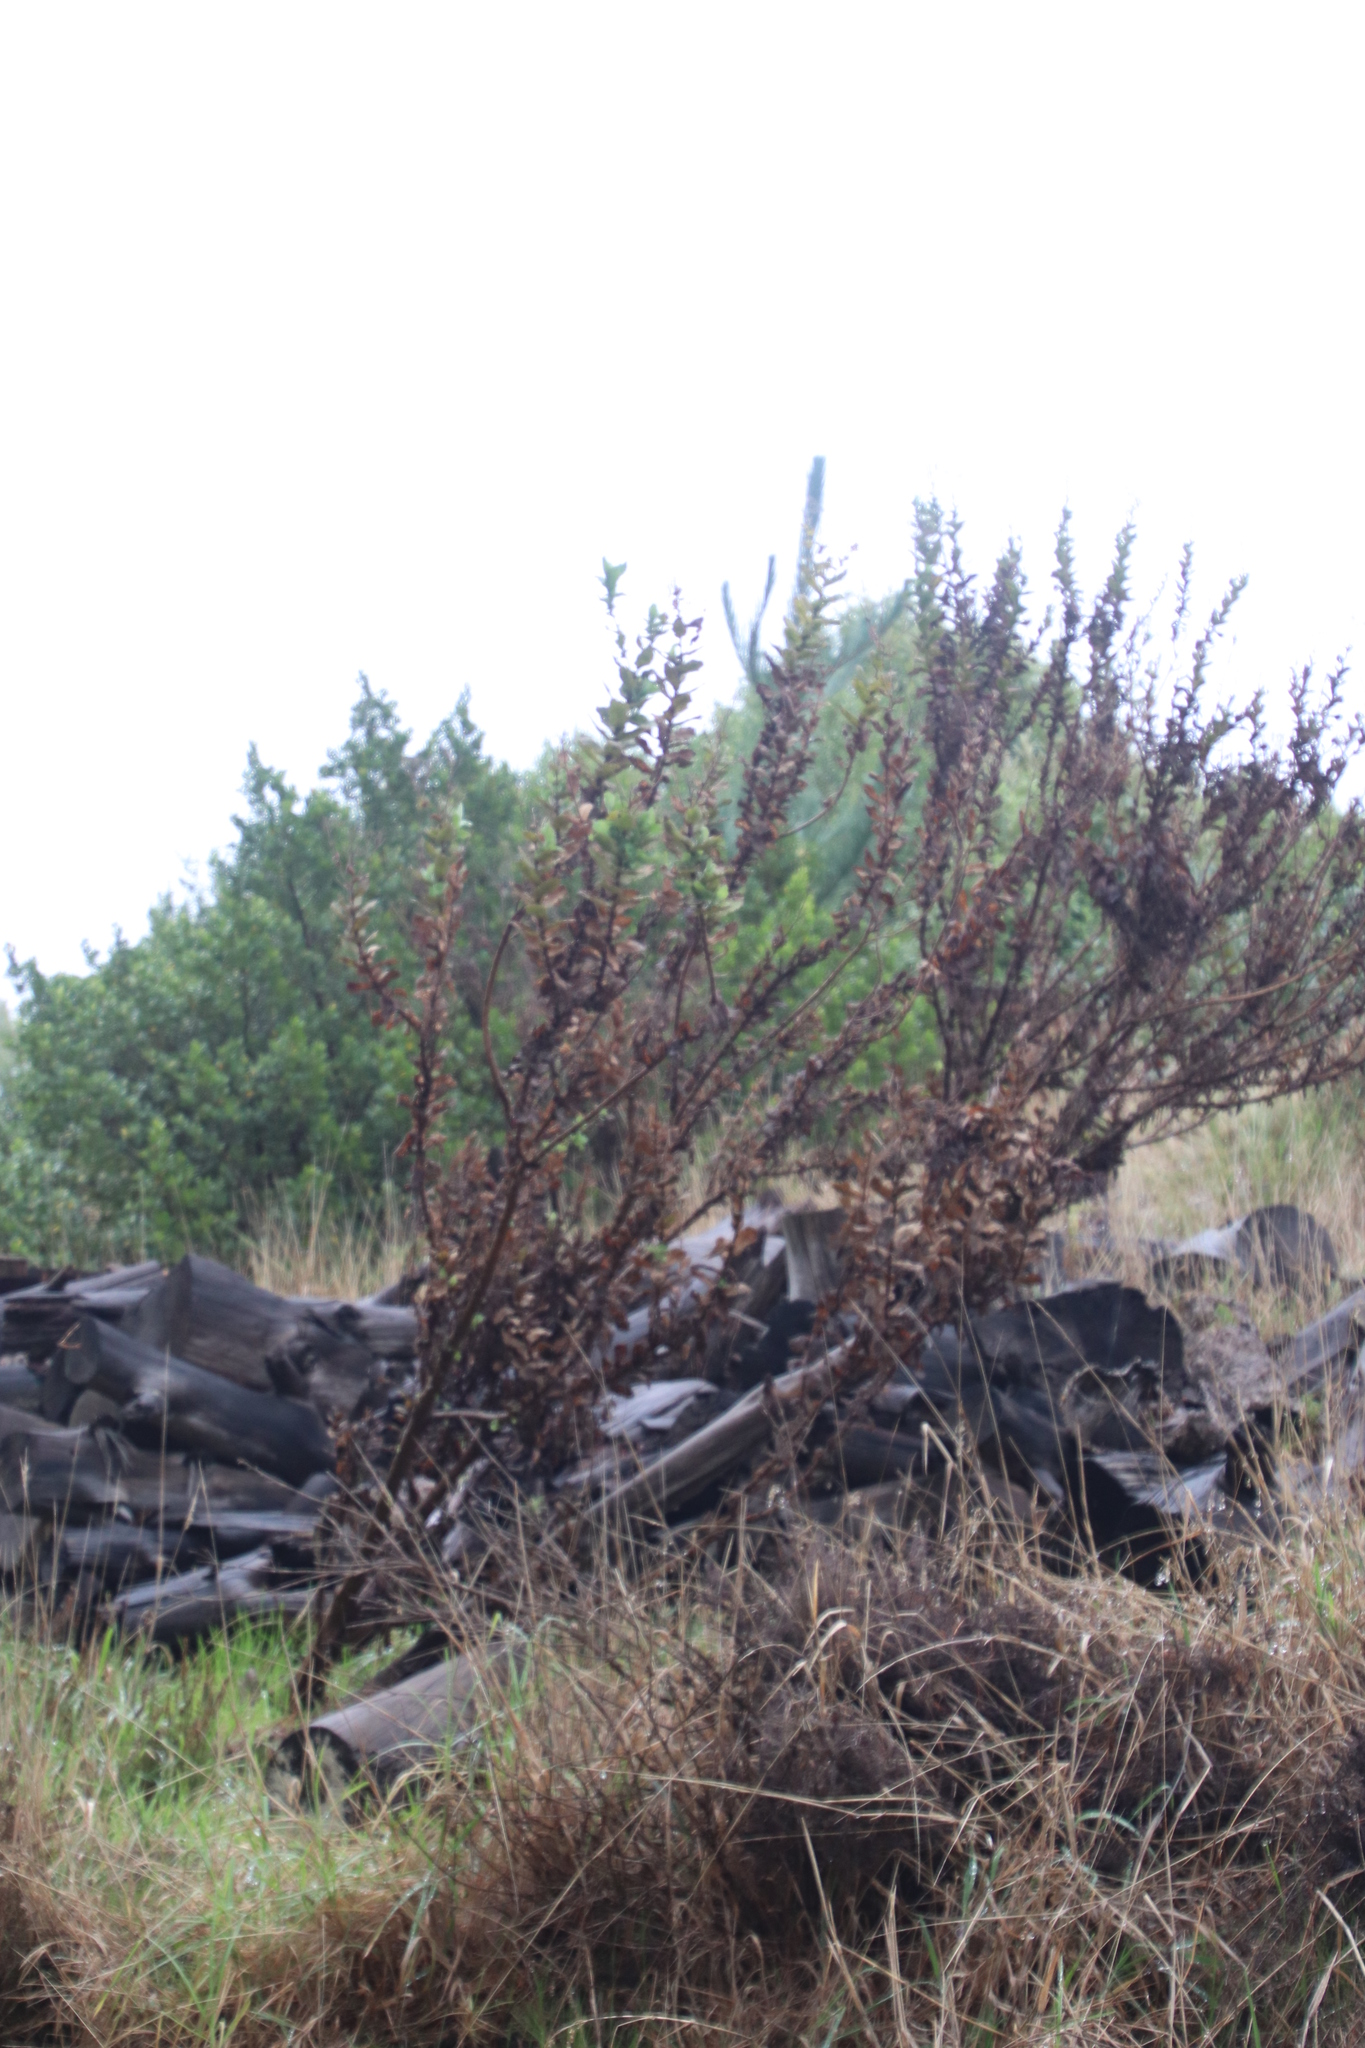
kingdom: Plantae
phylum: Tracheophyta
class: Magnoliopsida
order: Asterales
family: Asteraceae
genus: Senecio
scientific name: Senecio rigidus
